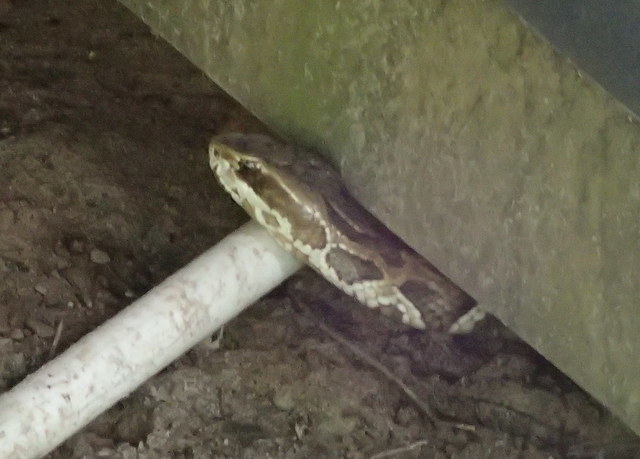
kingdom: Animalia
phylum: Chordata
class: Squamata
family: Viperidae
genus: Agkistrodon
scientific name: Agkistrodon conanti
